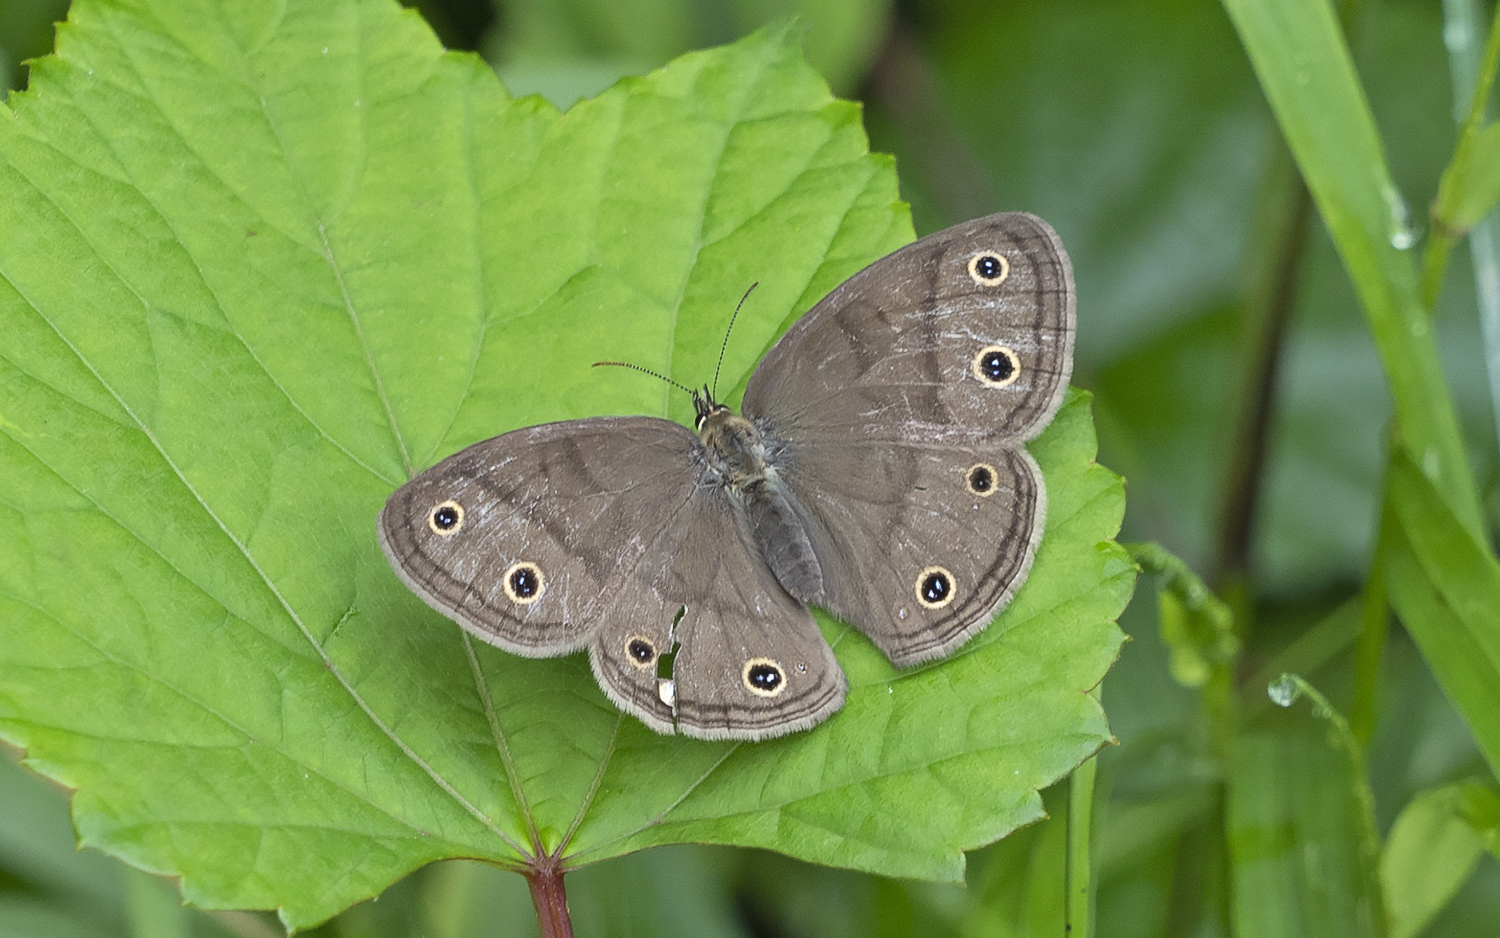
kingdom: Animalia
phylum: Arthropoda
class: Insecta
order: Lepidoptera
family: Nymphalidae
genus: Euptychia
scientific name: Euptychia cymela
